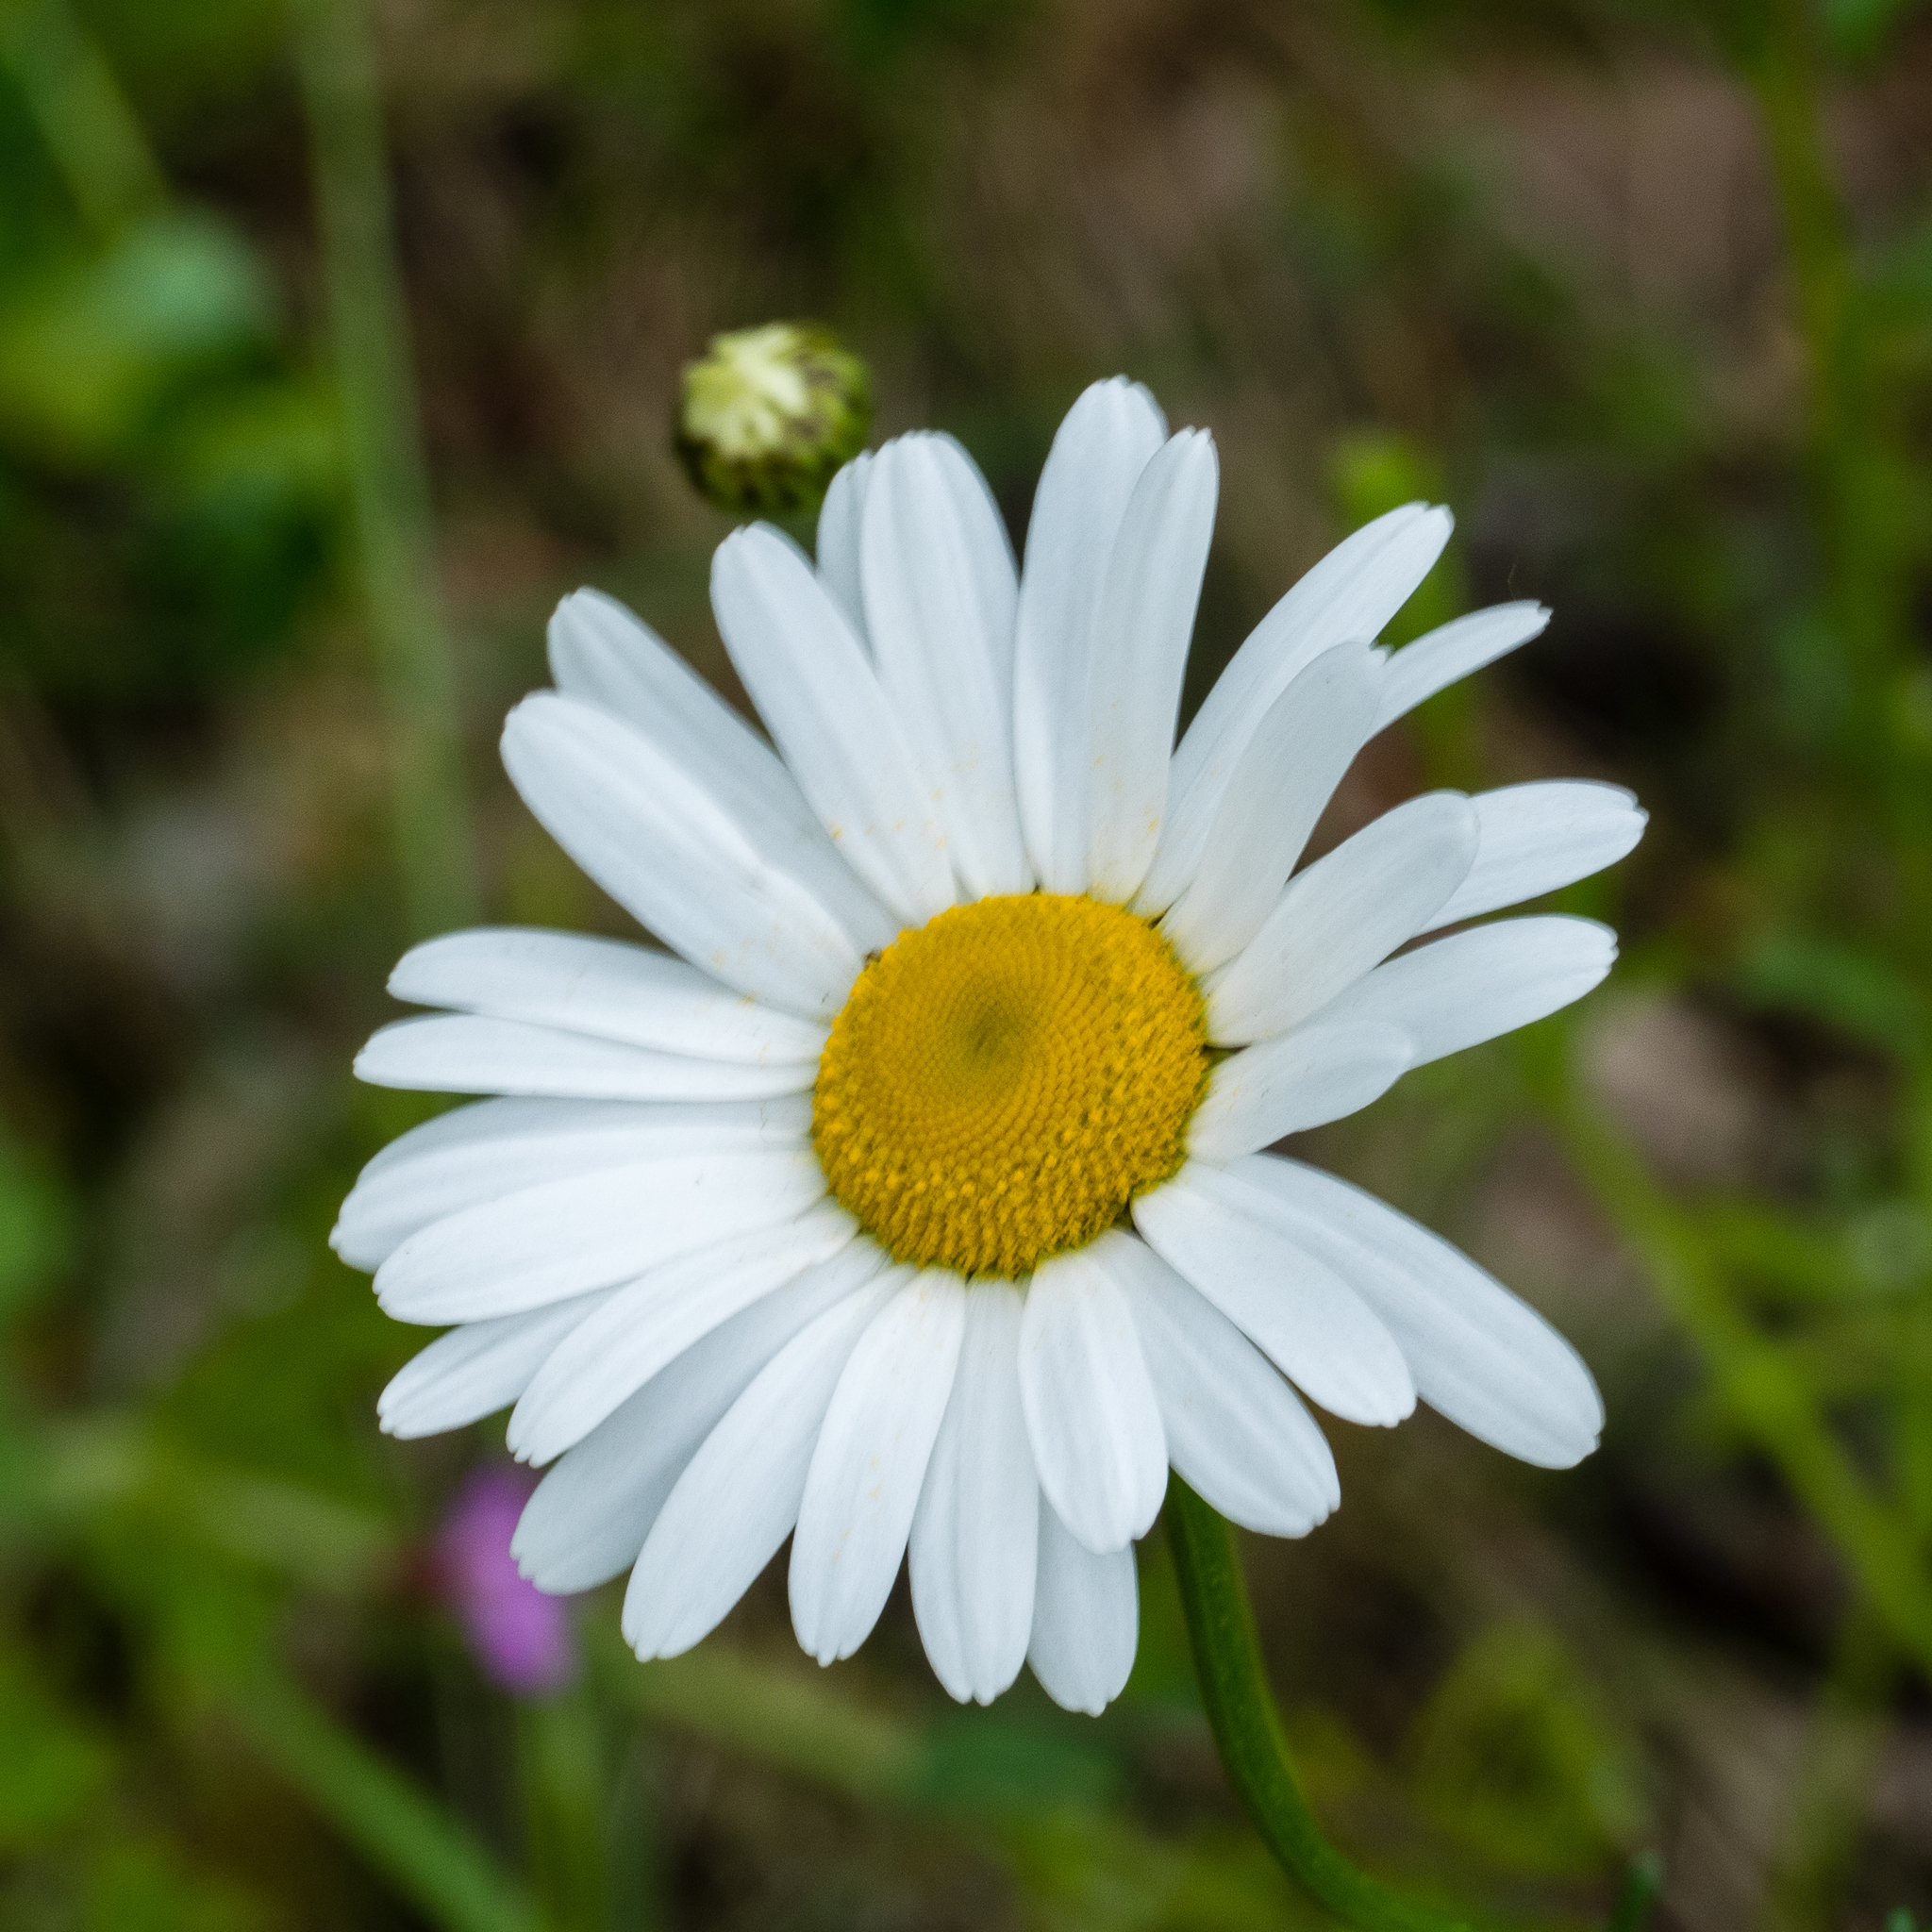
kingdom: Plantae
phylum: Tracheophyta
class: Magnoliopsida
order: Asterales
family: Asteraceae
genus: Leucanthemum
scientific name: Leucanthemum vulgare
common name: Oxeye daisy
